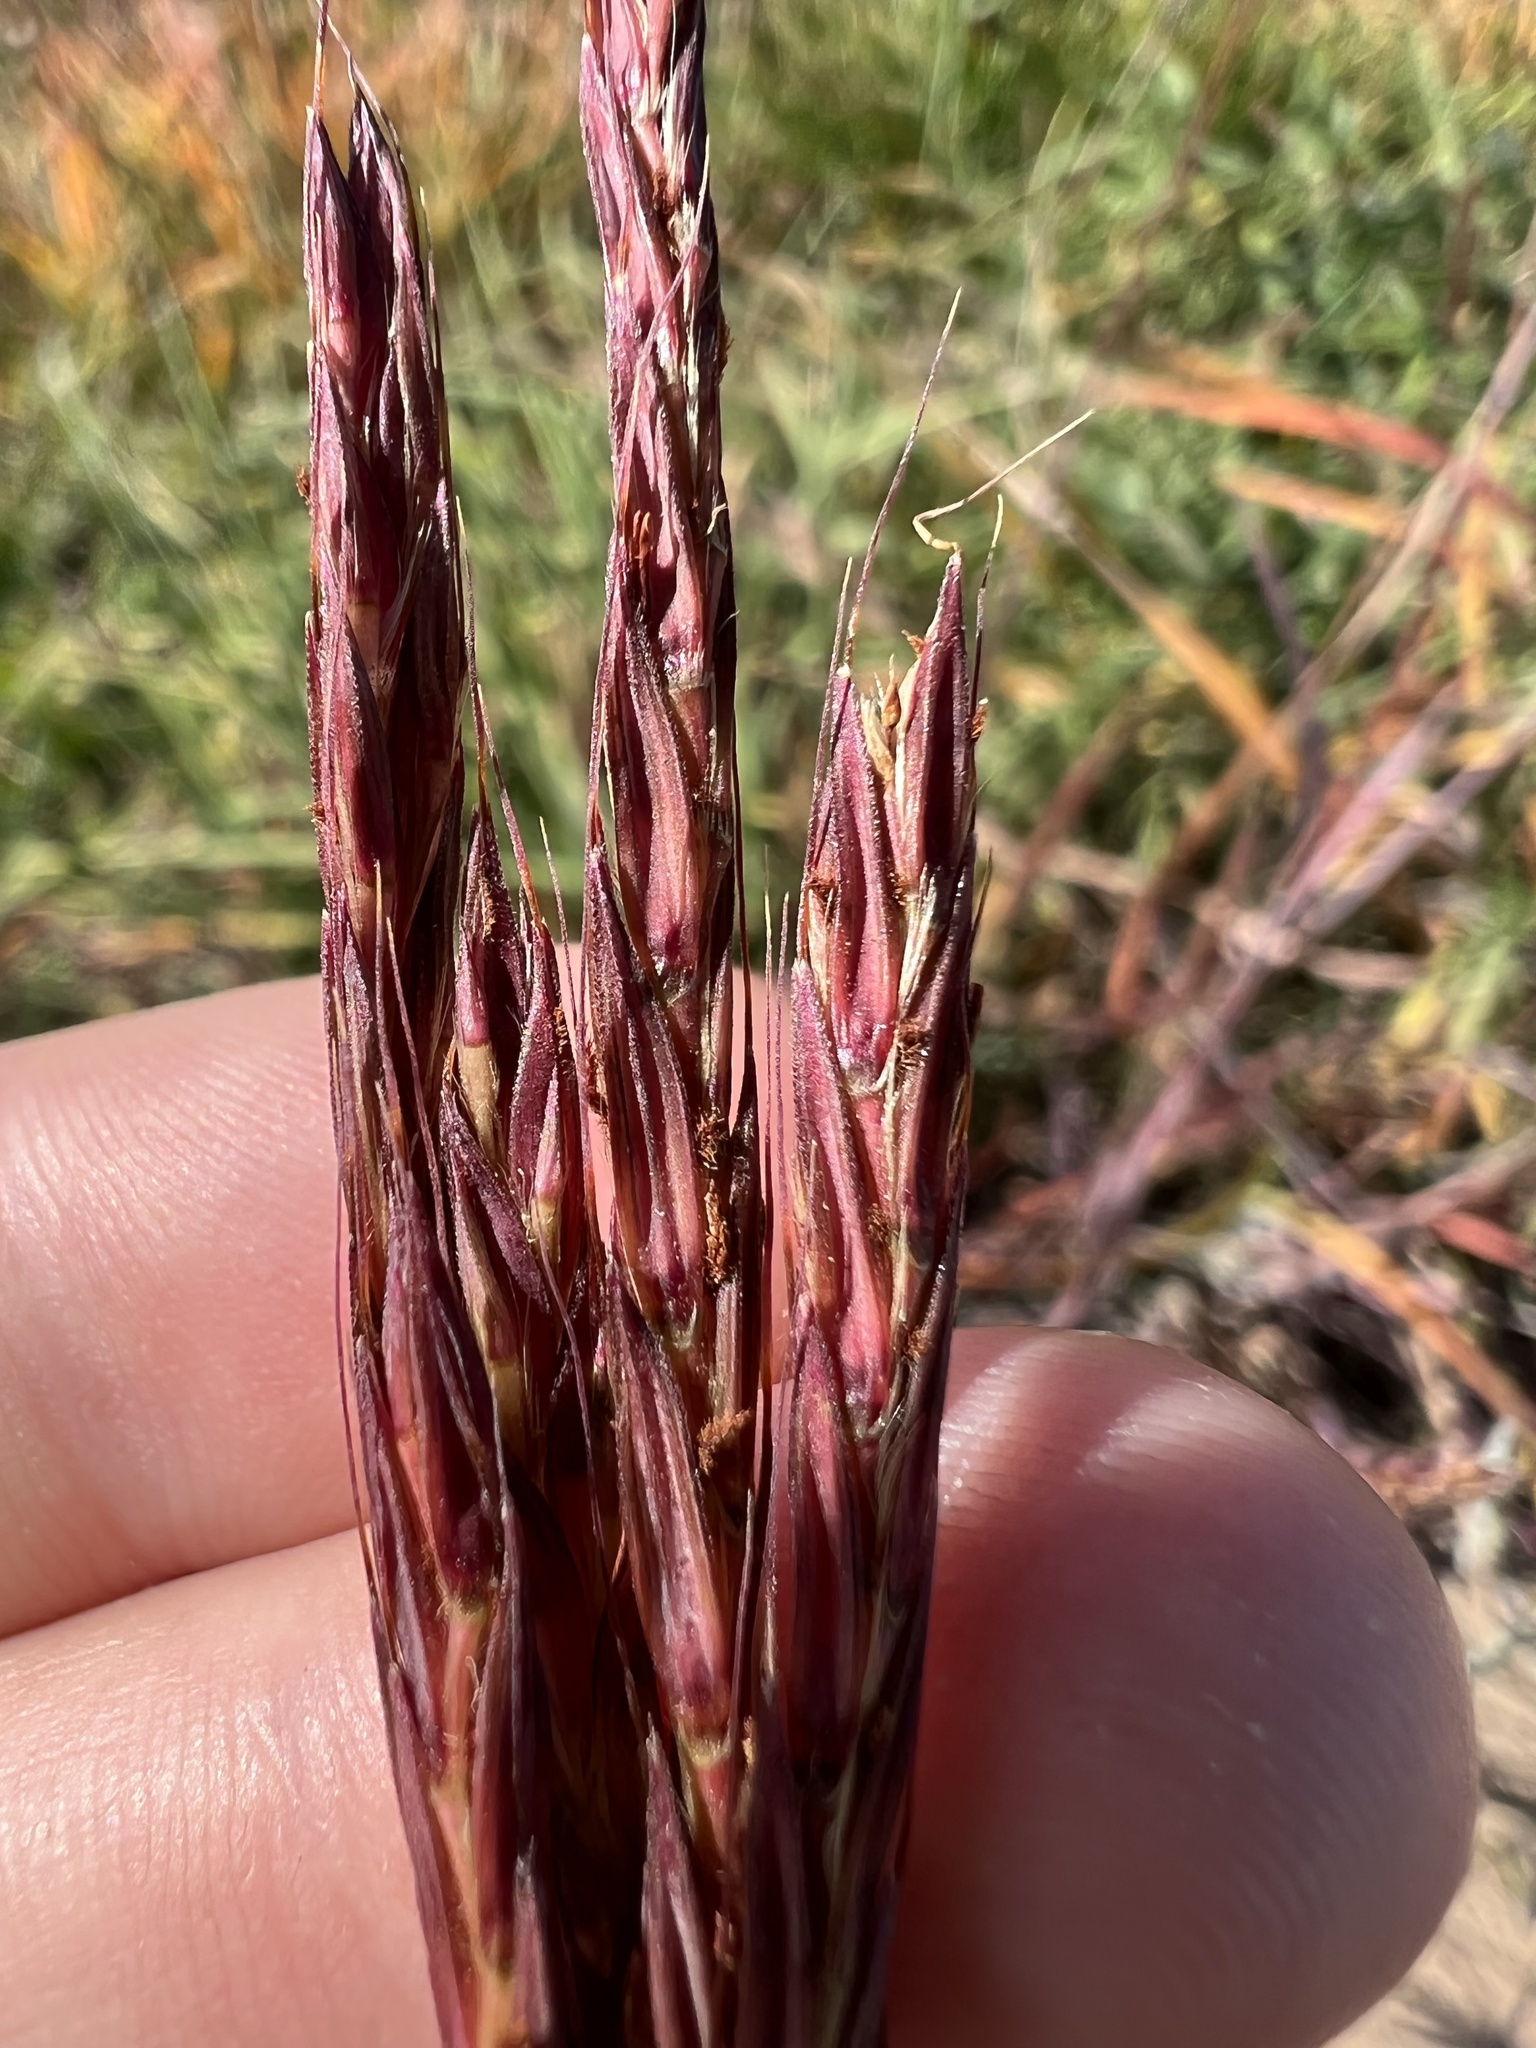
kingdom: Plantae
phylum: Tracheophyta
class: Liliopsida
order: Poales
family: Poaceae
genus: Andropogon
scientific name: Andropogon gerardi
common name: Big bluestem
